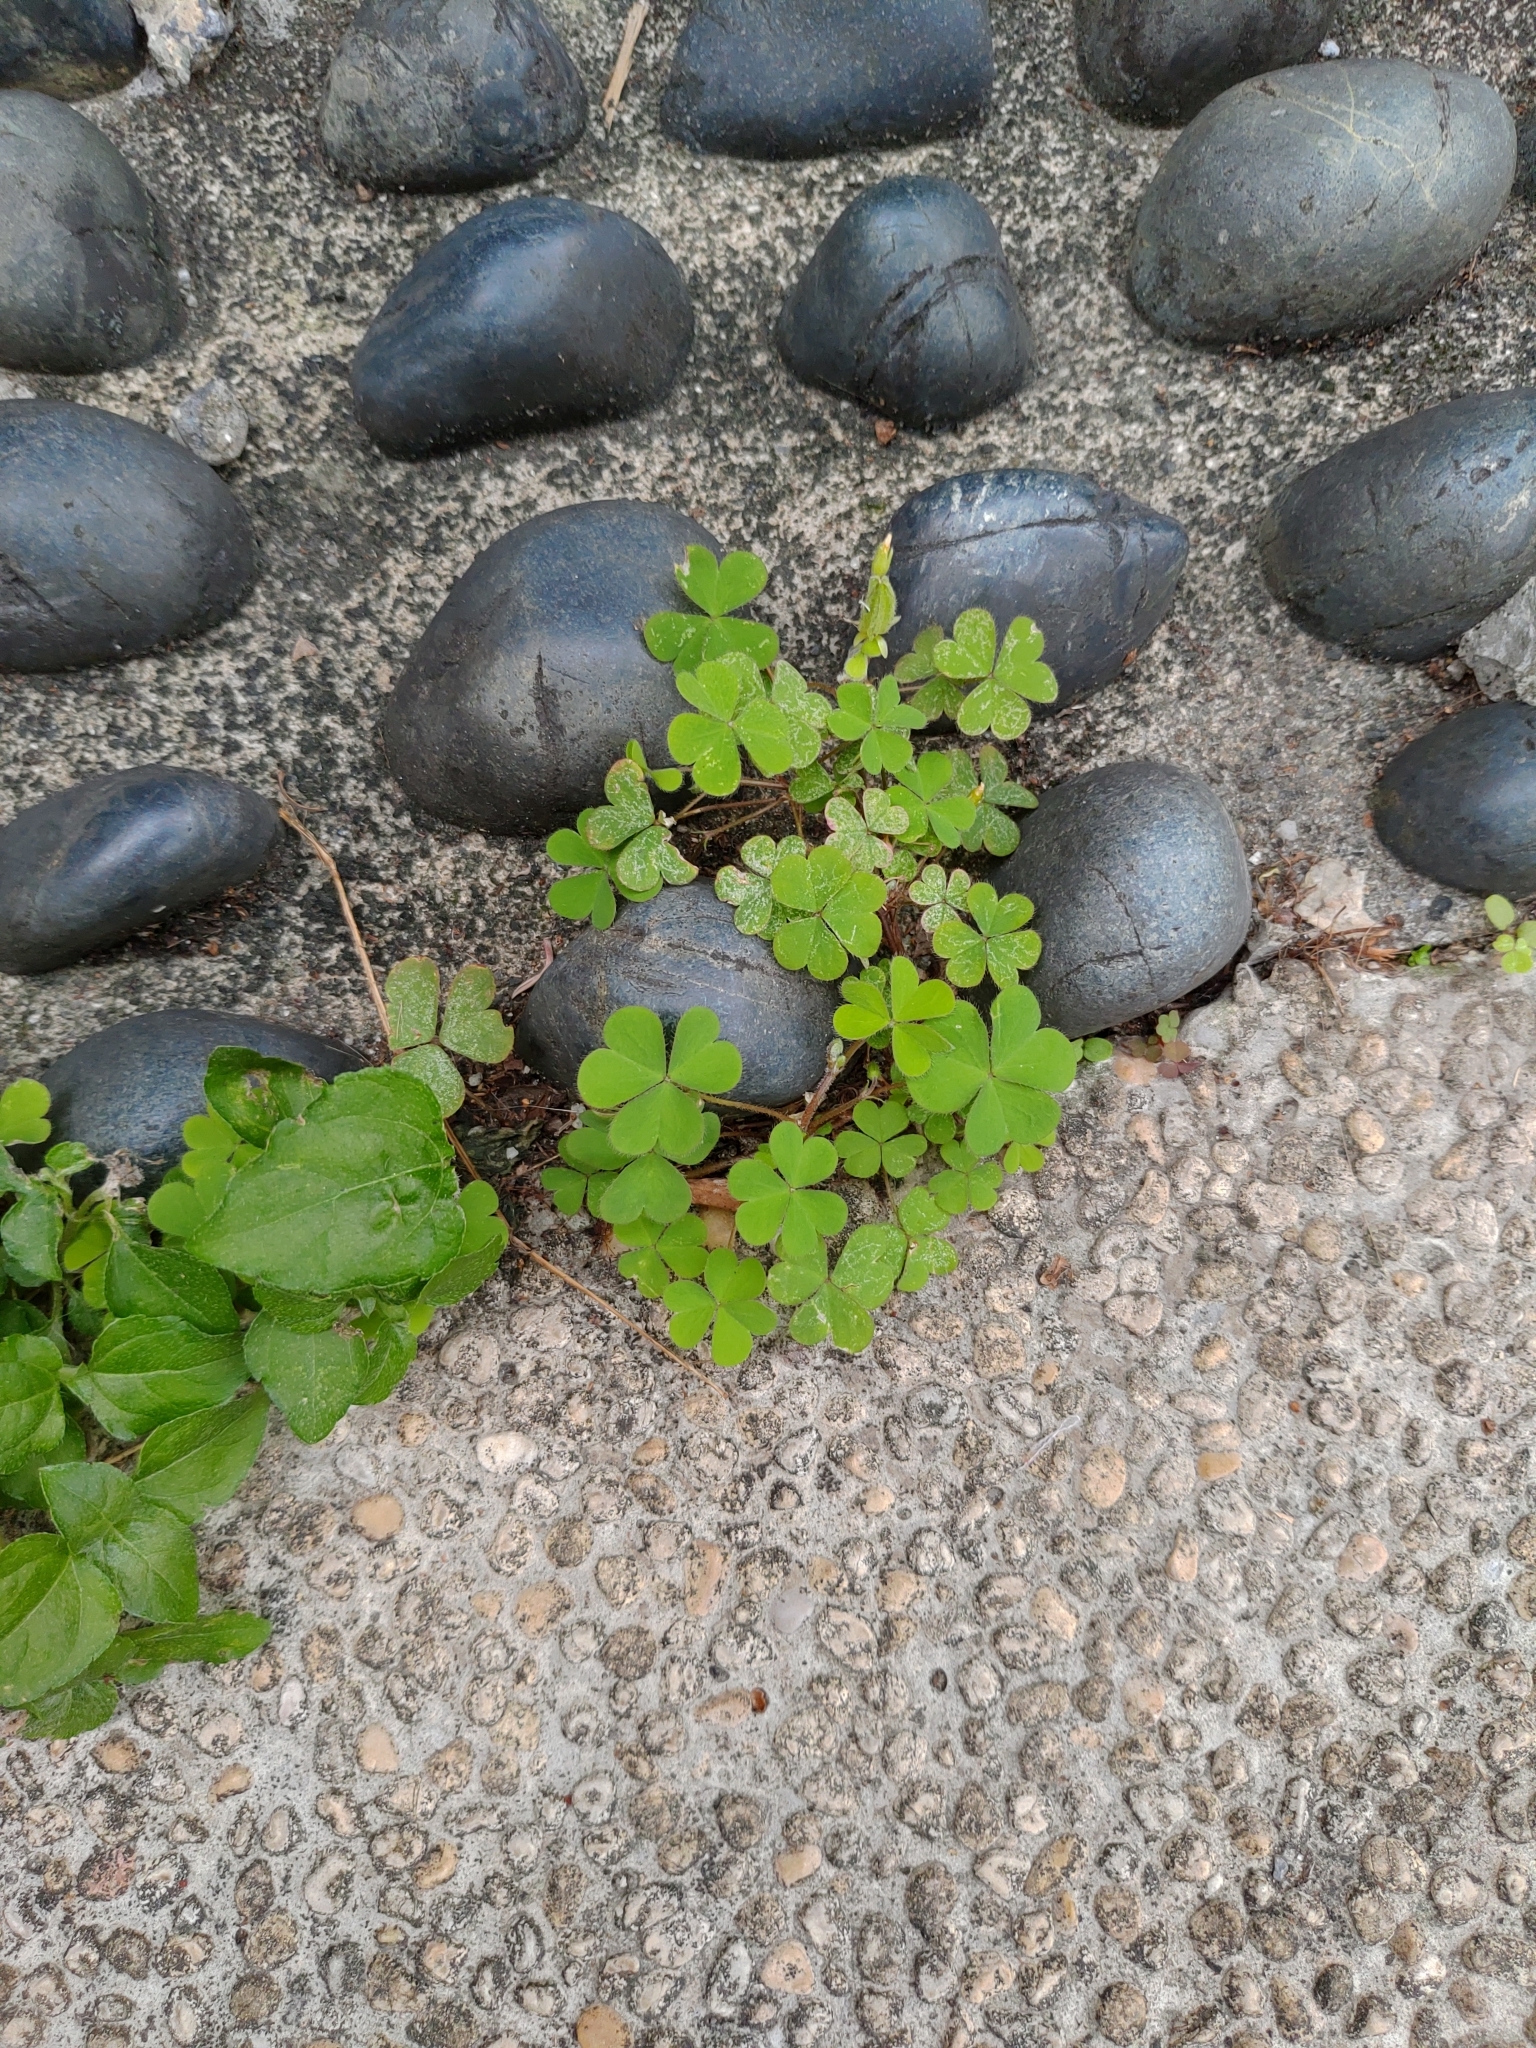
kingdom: Plantae
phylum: Tracheophyta
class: Magnoliopsida
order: Oxalidales
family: Oxalidaceae
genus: Oxalis
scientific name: Oxalis corniculata
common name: Procumbent yellow-sorrel
